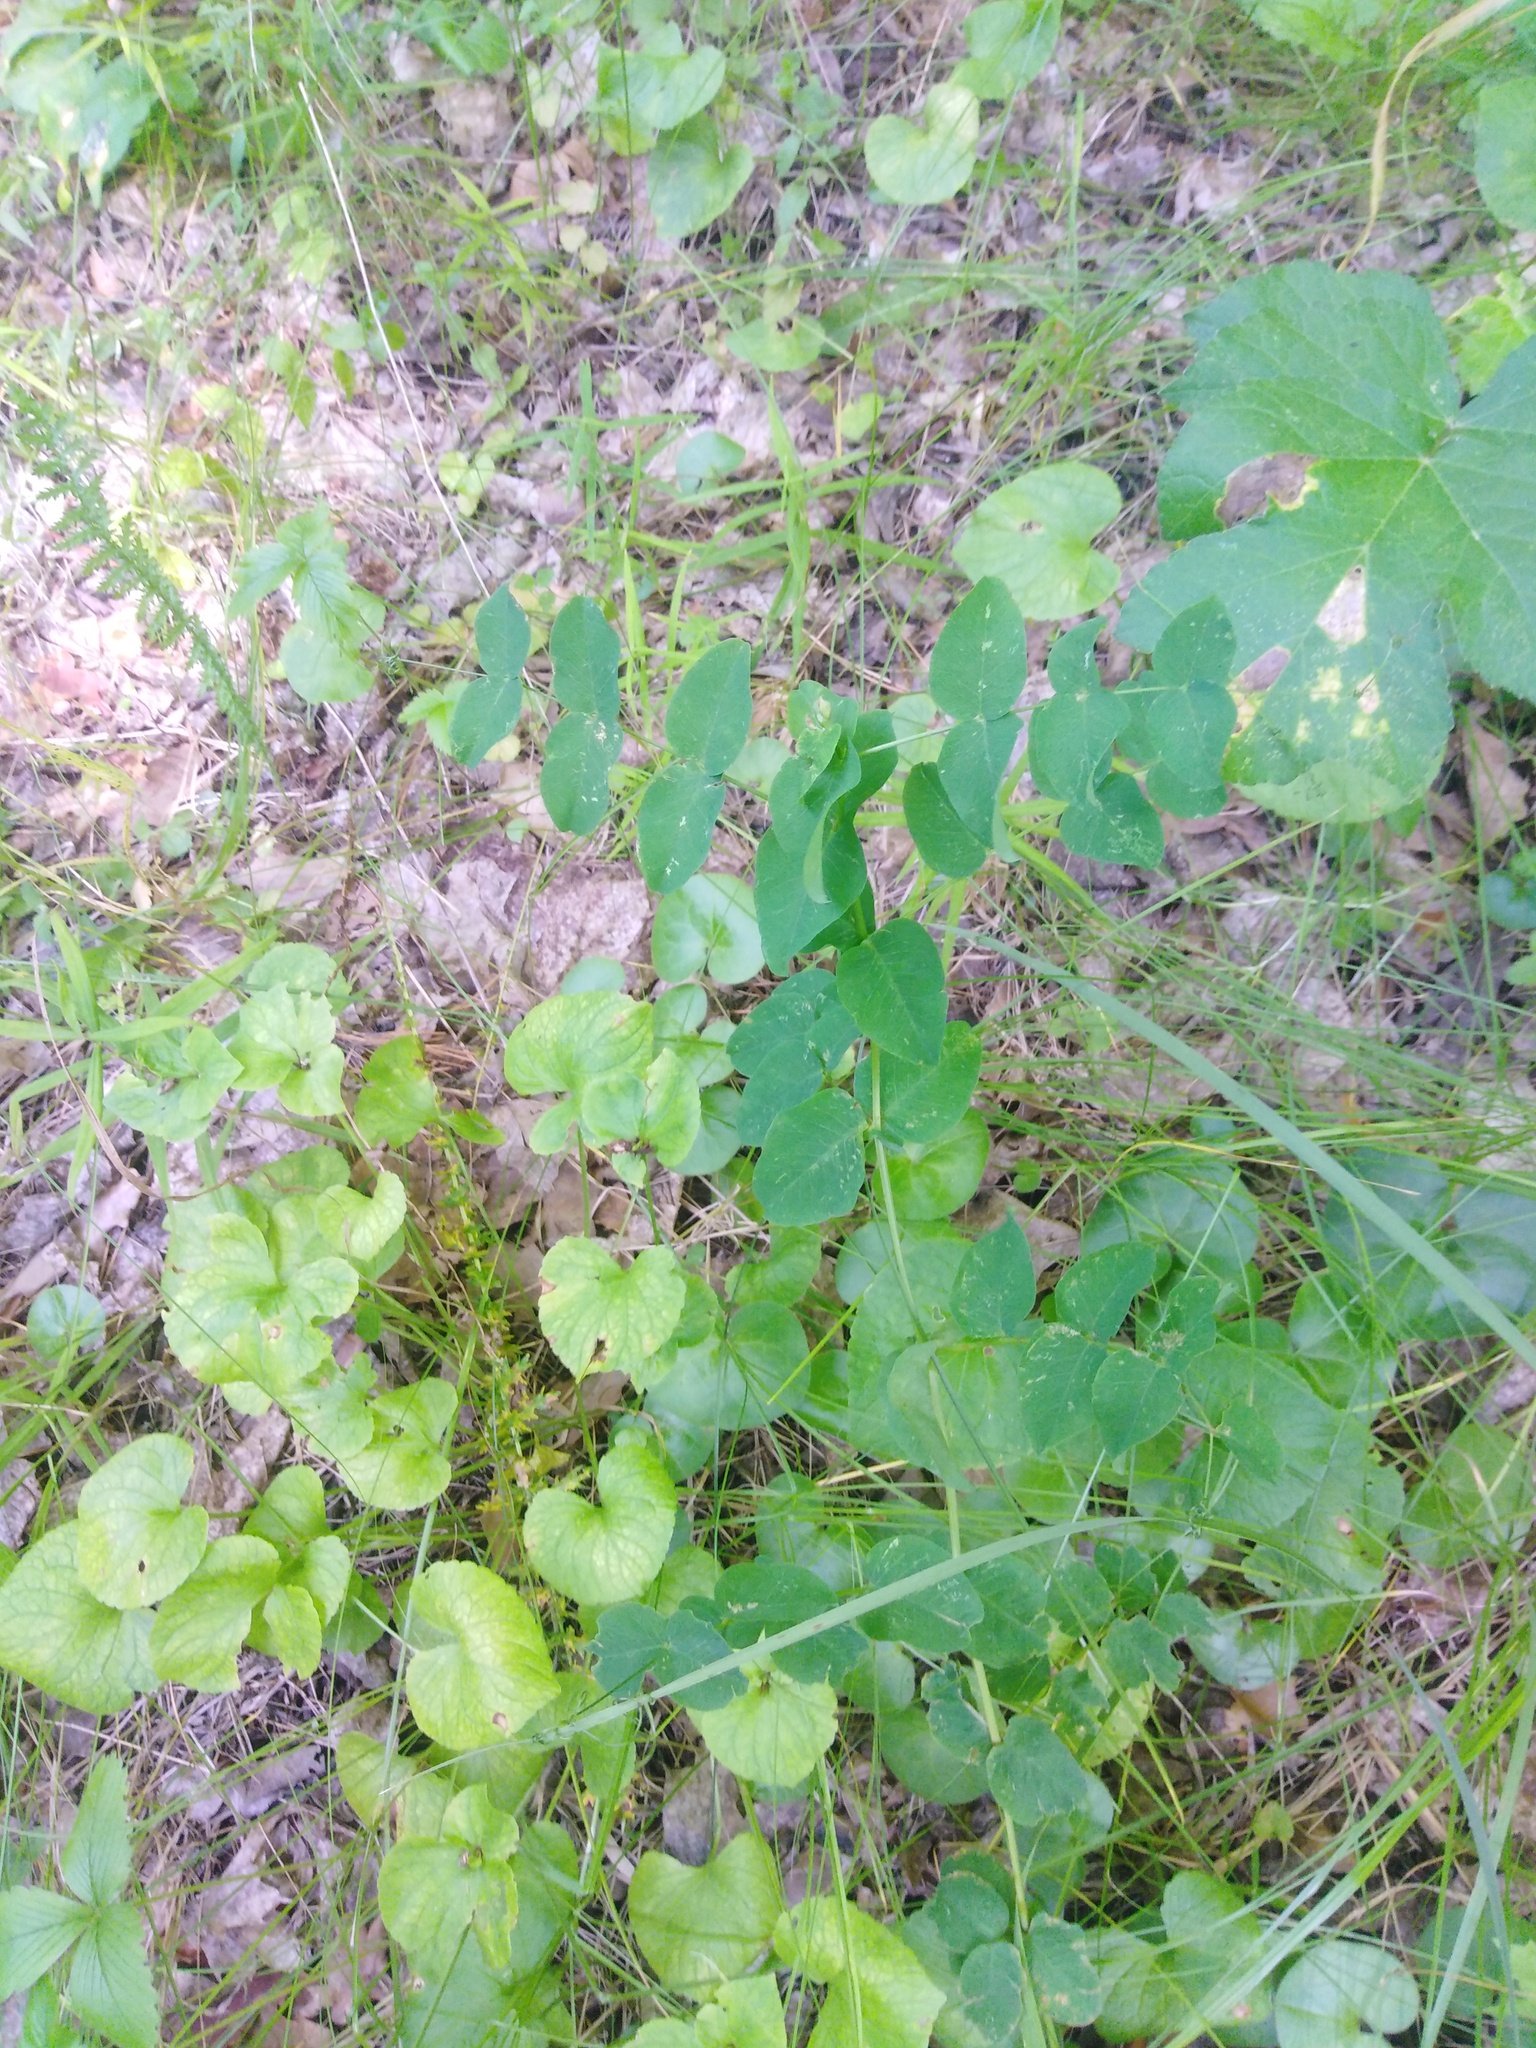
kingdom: Plantae
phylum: Tracheophyta
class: Magnoliopsida
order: Fabales
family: Fabaceae
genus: Vicia
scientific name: Vicia pisiformis
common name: Pale-flower vetch
